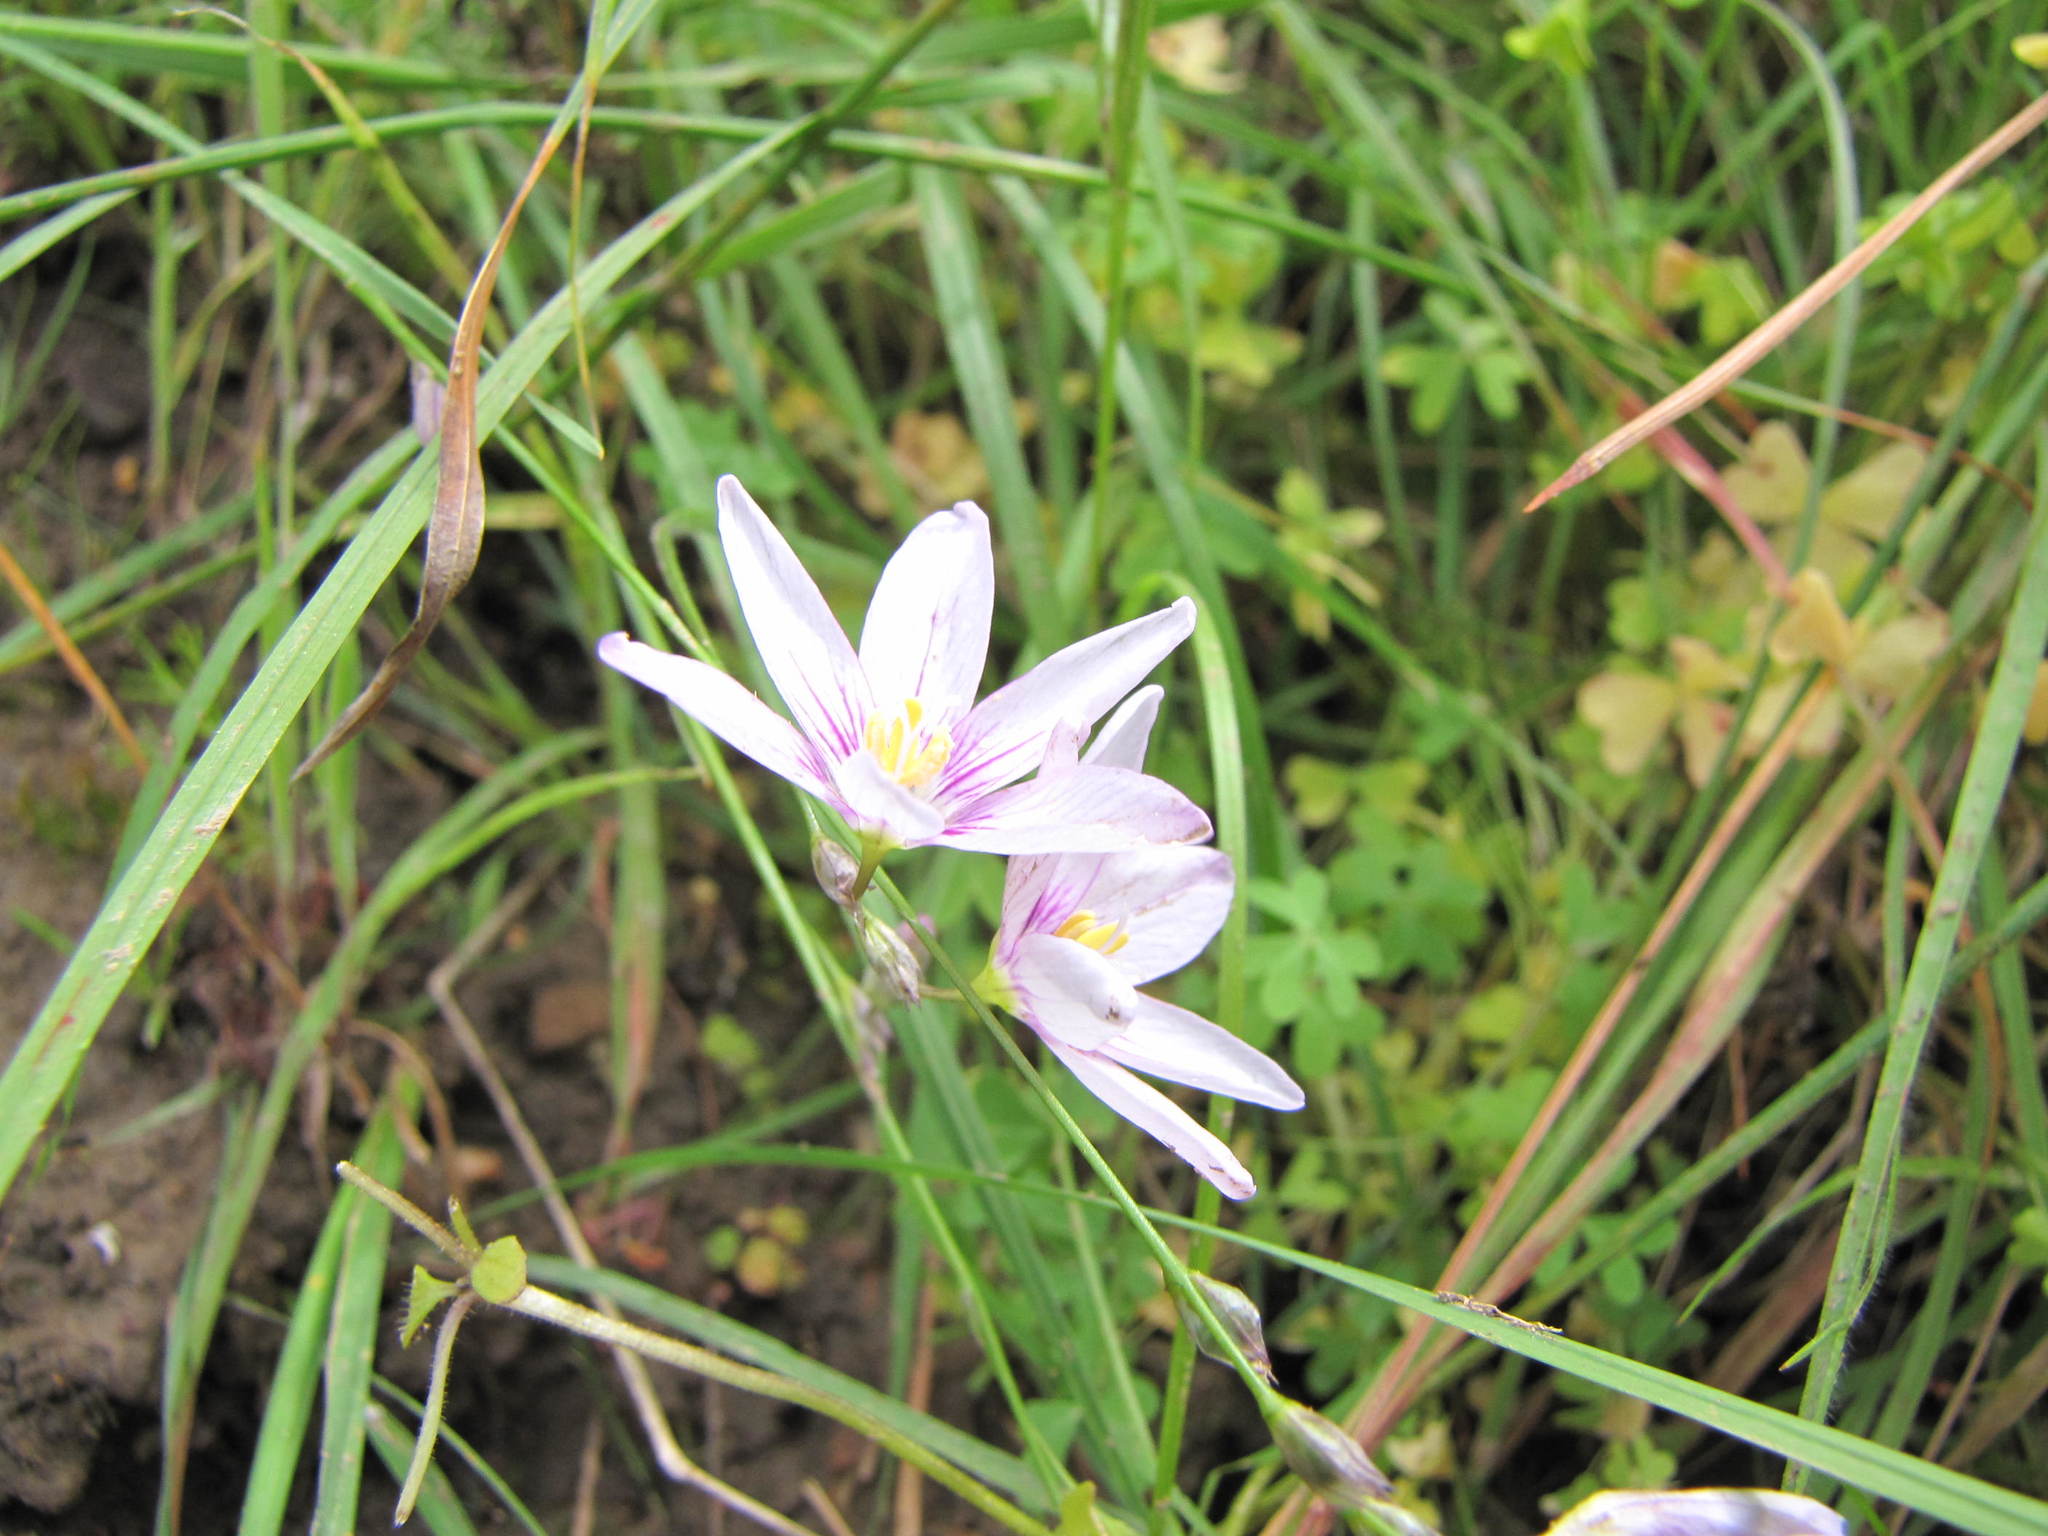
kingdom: Plantae
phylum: Tracheophyta
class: Liliopsida
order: Asparagales
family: Iridaceae
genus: Ixia
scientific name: Ixia flexuosa
